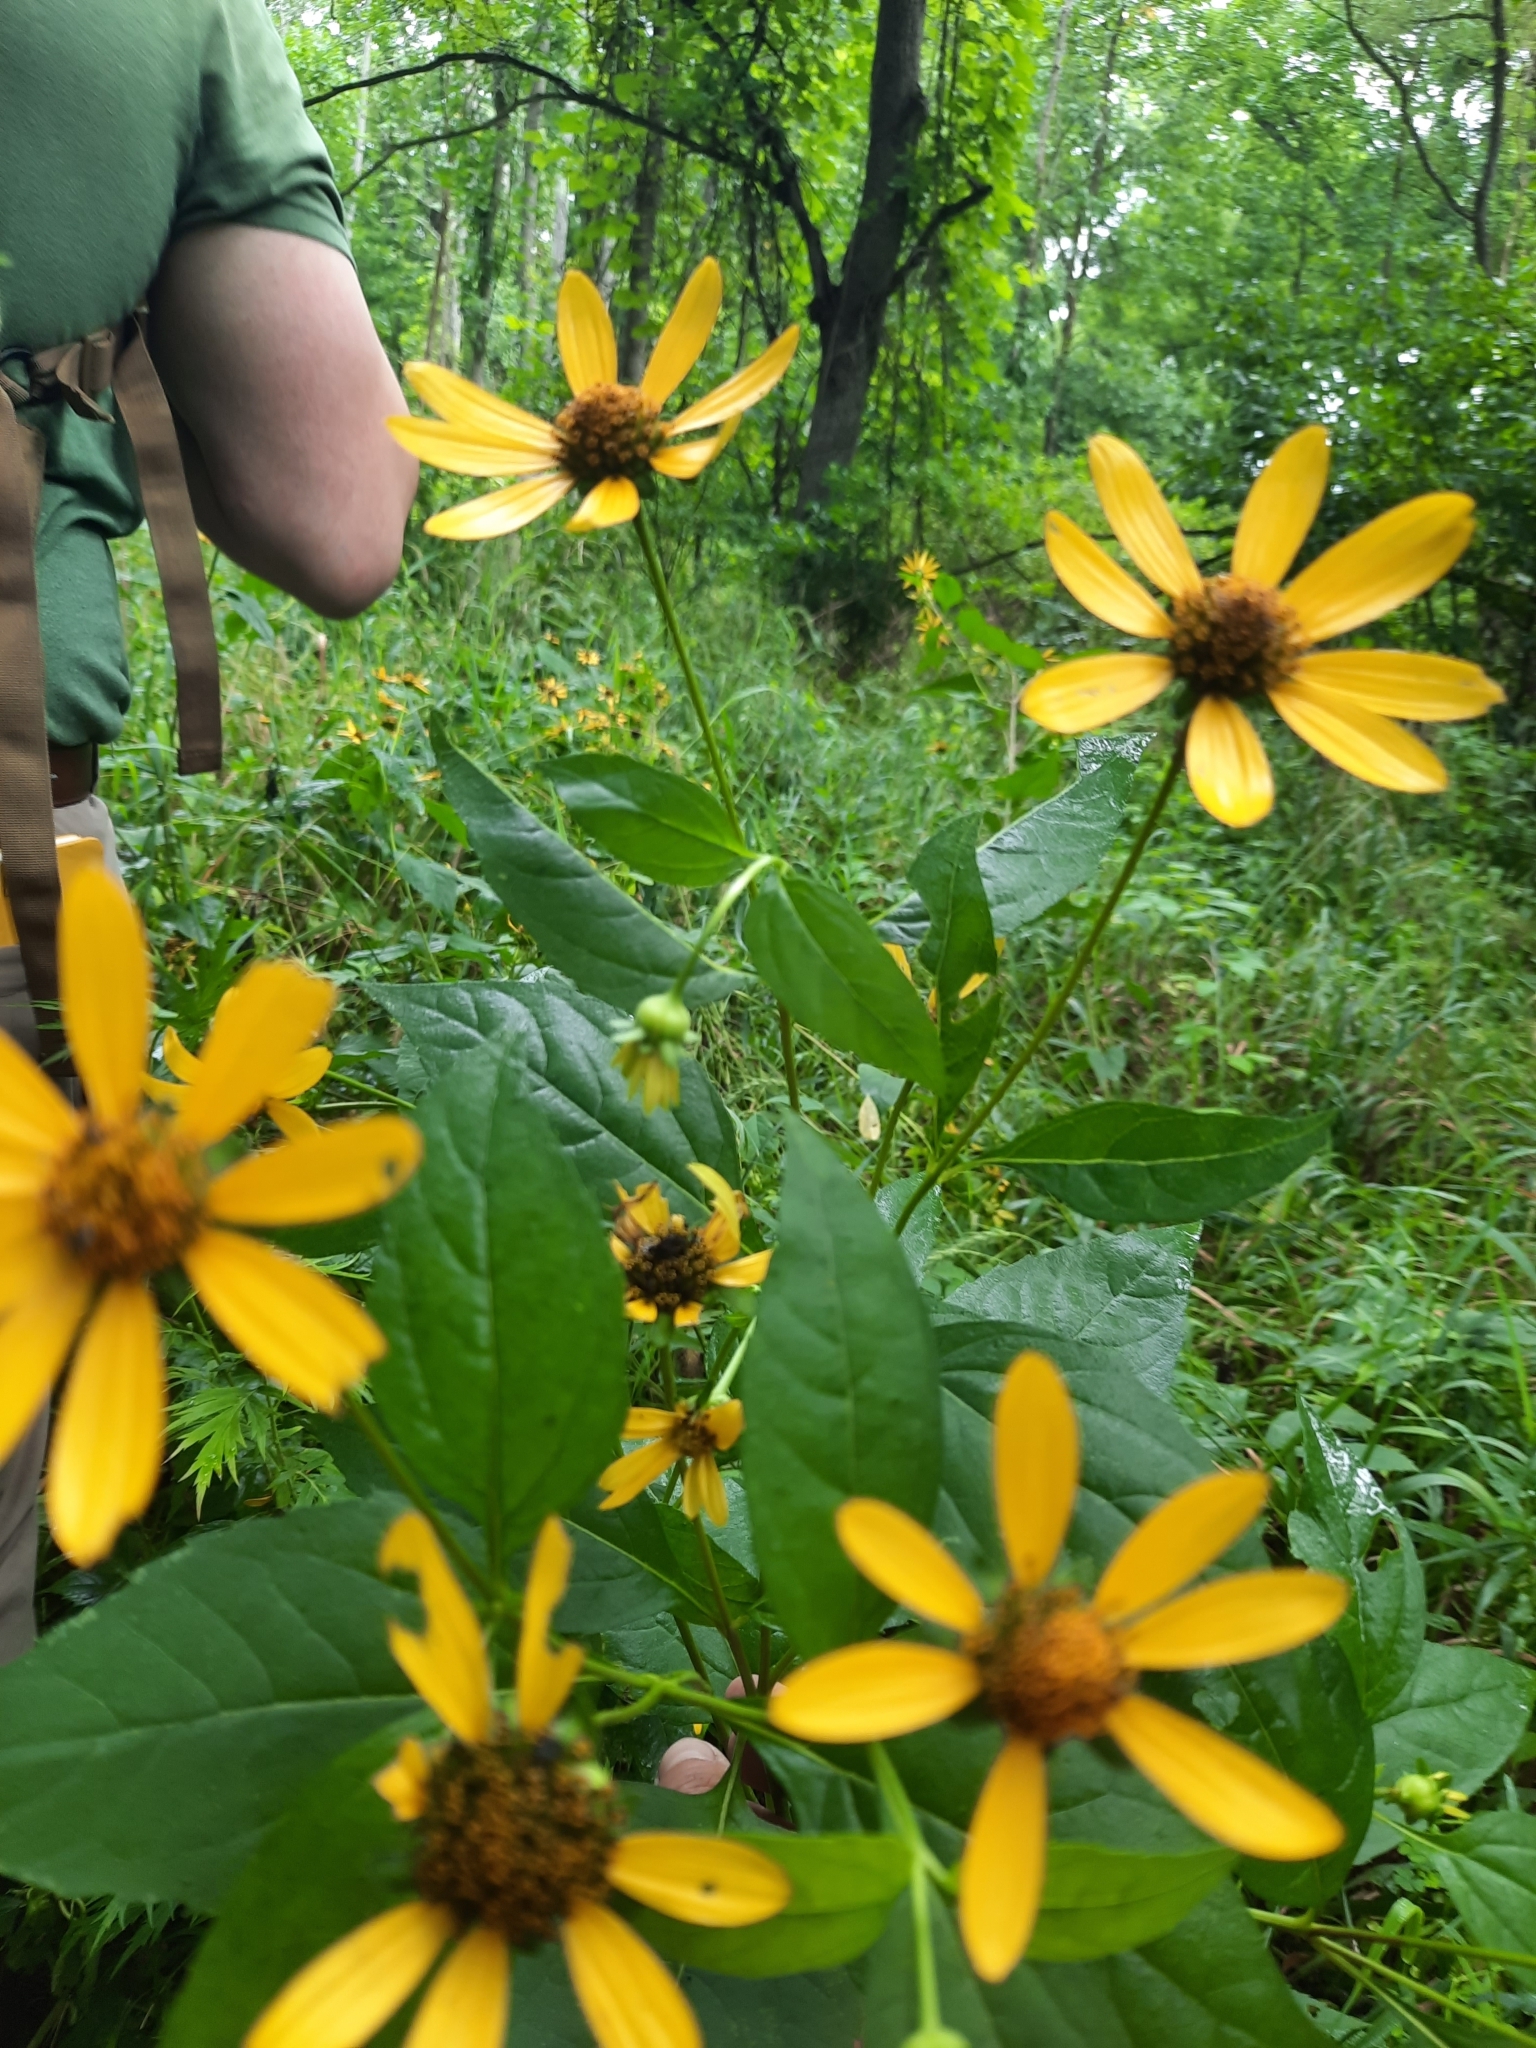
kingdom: Plantae
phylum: Tracheophyta
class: Magnoliopsida
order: Asterales
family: Asteraceae
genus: Heliopsis
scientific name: Heliopsis helianthoides
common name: False sunflower
